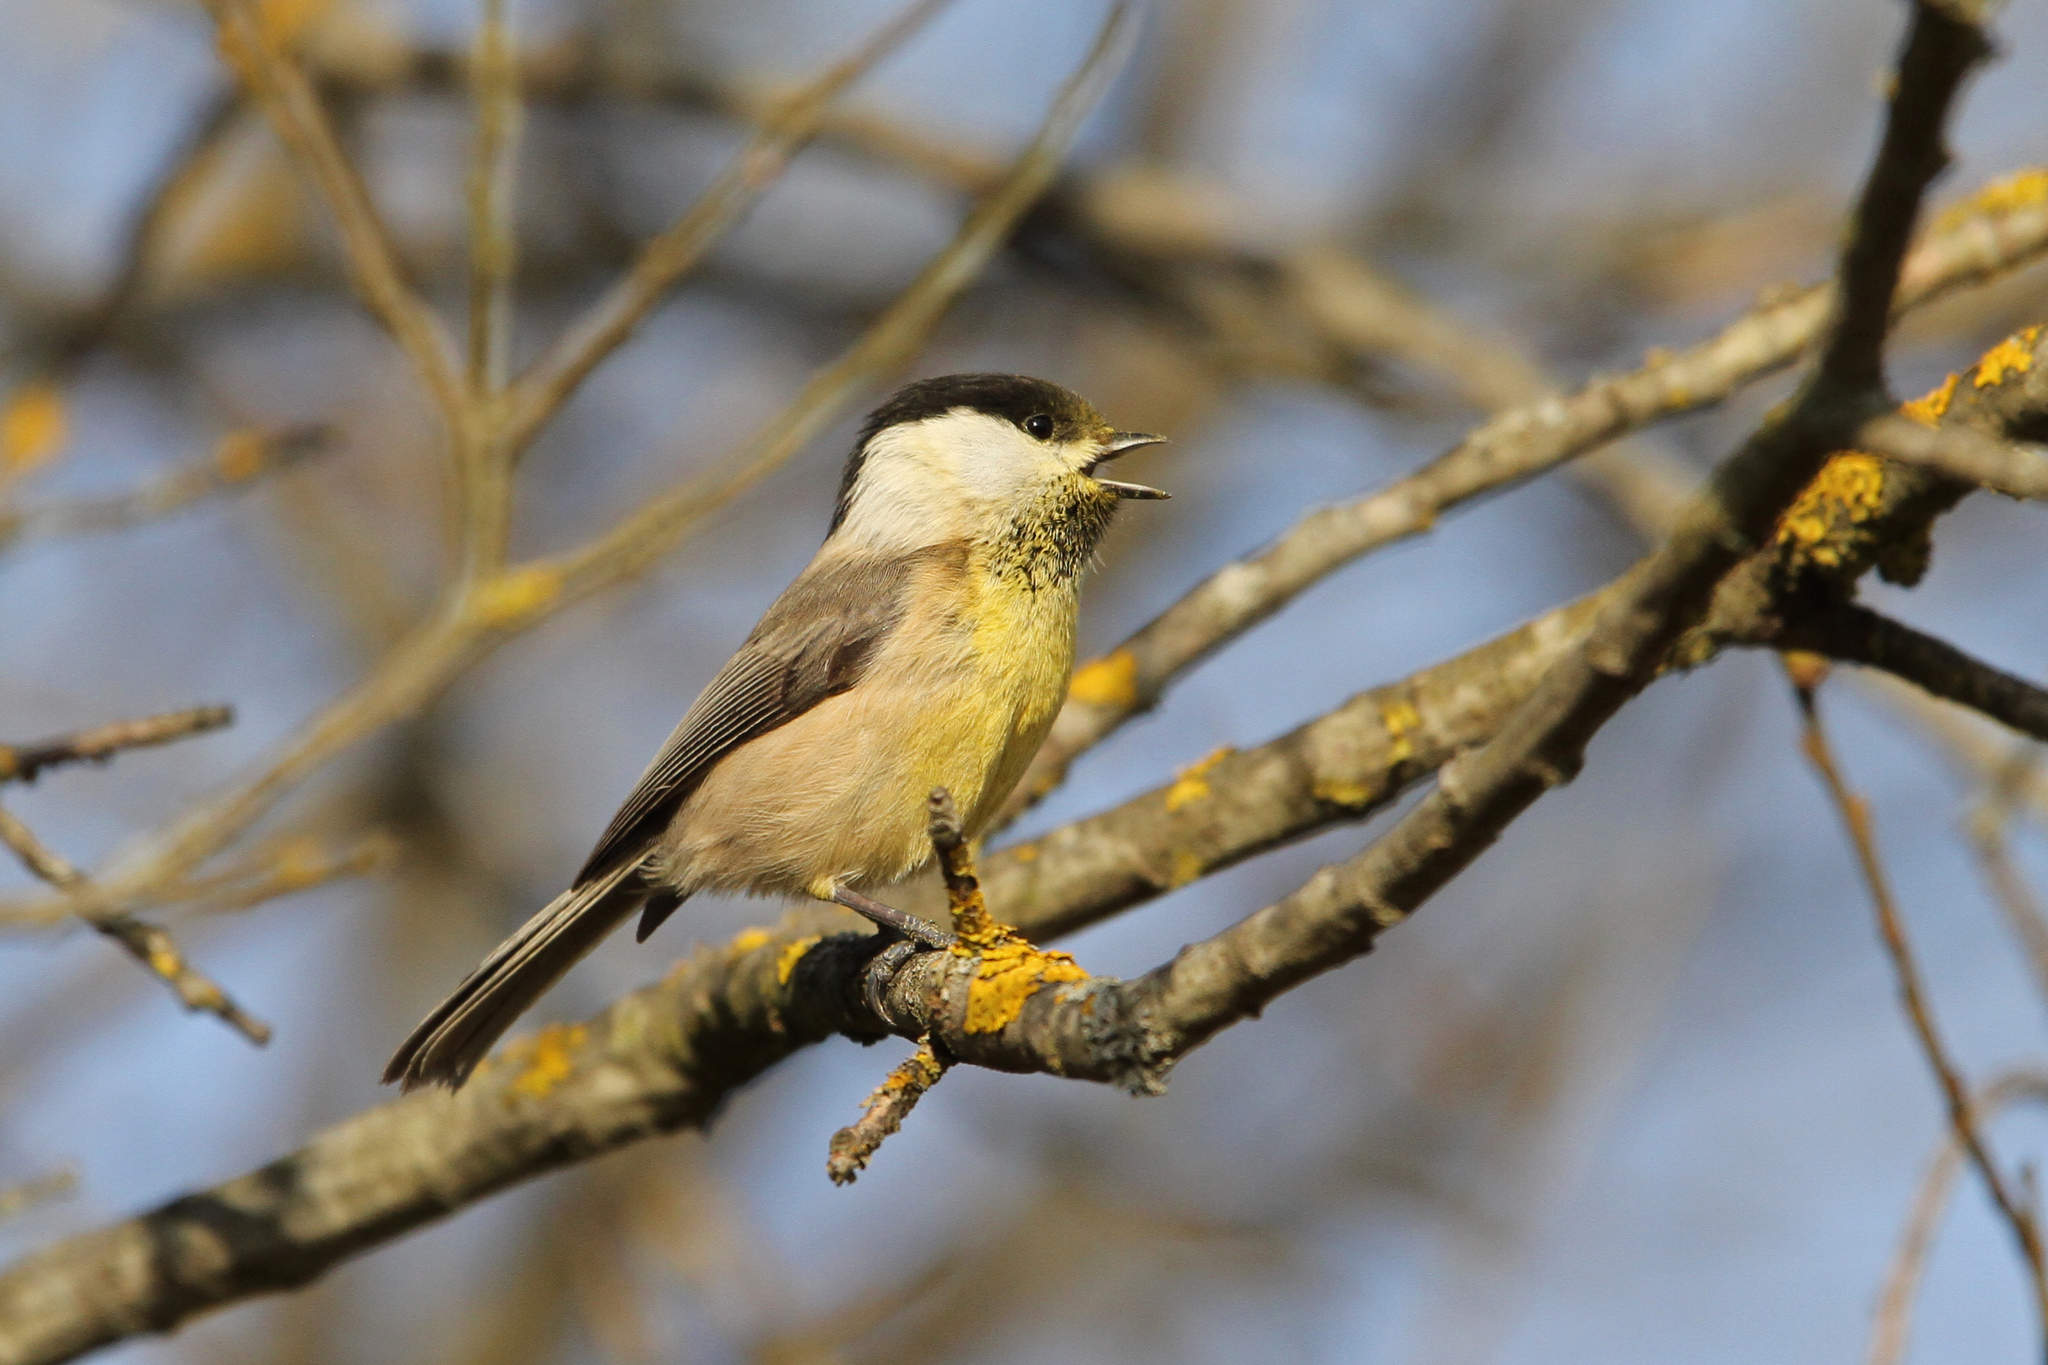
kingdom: Animalia
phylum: Chordata
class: Aves
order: Passeriformes
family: Paridae
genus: Poecile
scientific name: Poecile montanus
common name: Willow tit
